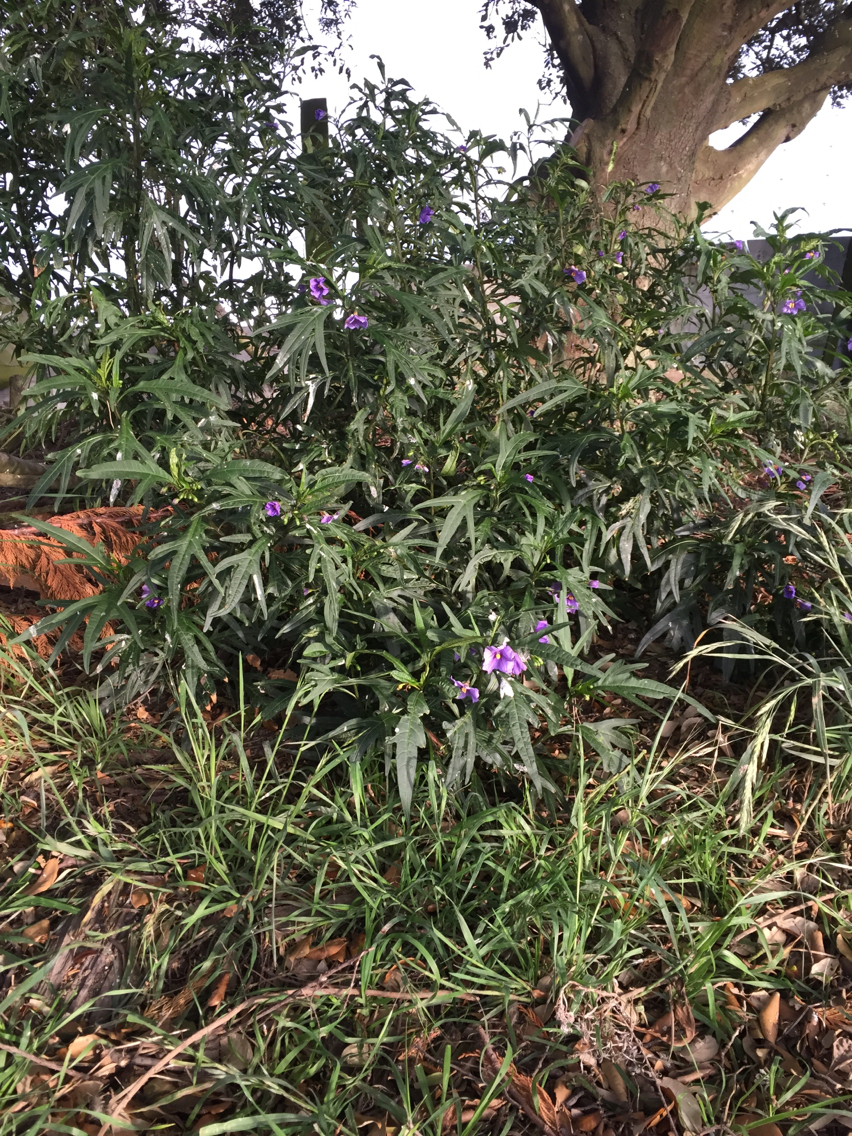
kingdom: Plantae
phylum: Tracheophyta
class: Magnoliopsida
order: Solanales
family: Solanaceae
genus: Solanum
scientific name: Solanum laciniatum
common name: Kangaroo-apple
